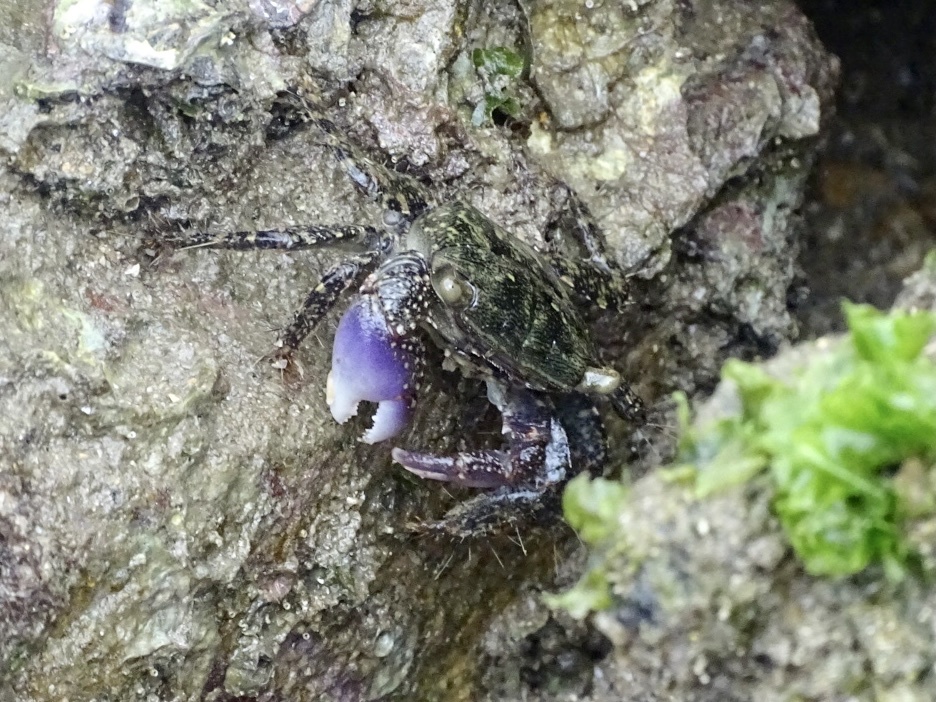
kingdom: Animalia
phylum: Arthropoda
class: Malacostraca
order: Decapoda
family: Grapsidae
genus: Metopograpsus
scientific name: Metopograpsus frontalis
